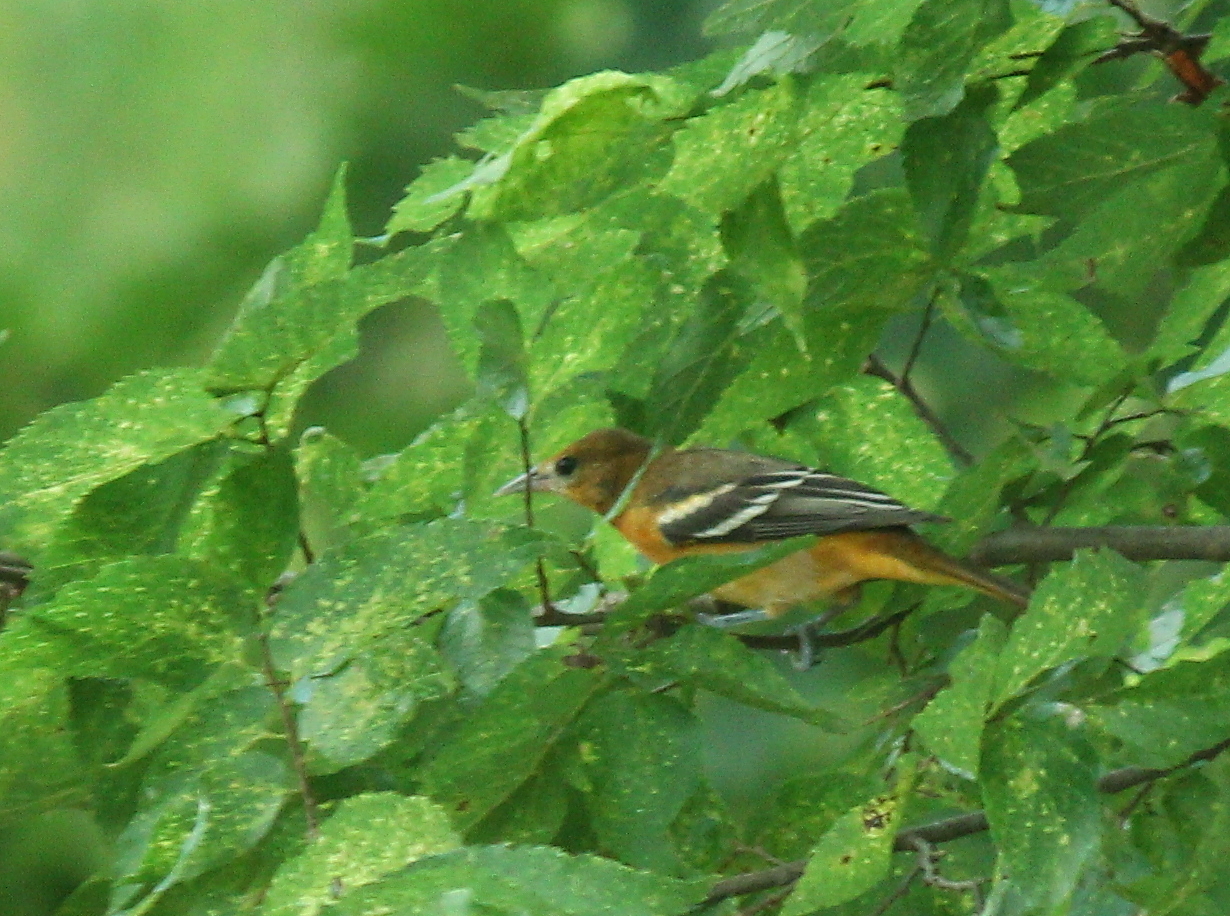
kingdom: Animalia
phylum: Chordata
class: Aves
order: Passeriformes
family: Icteridae
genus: Icterus
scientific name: Icterus galbula
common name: Baltimore oriole
